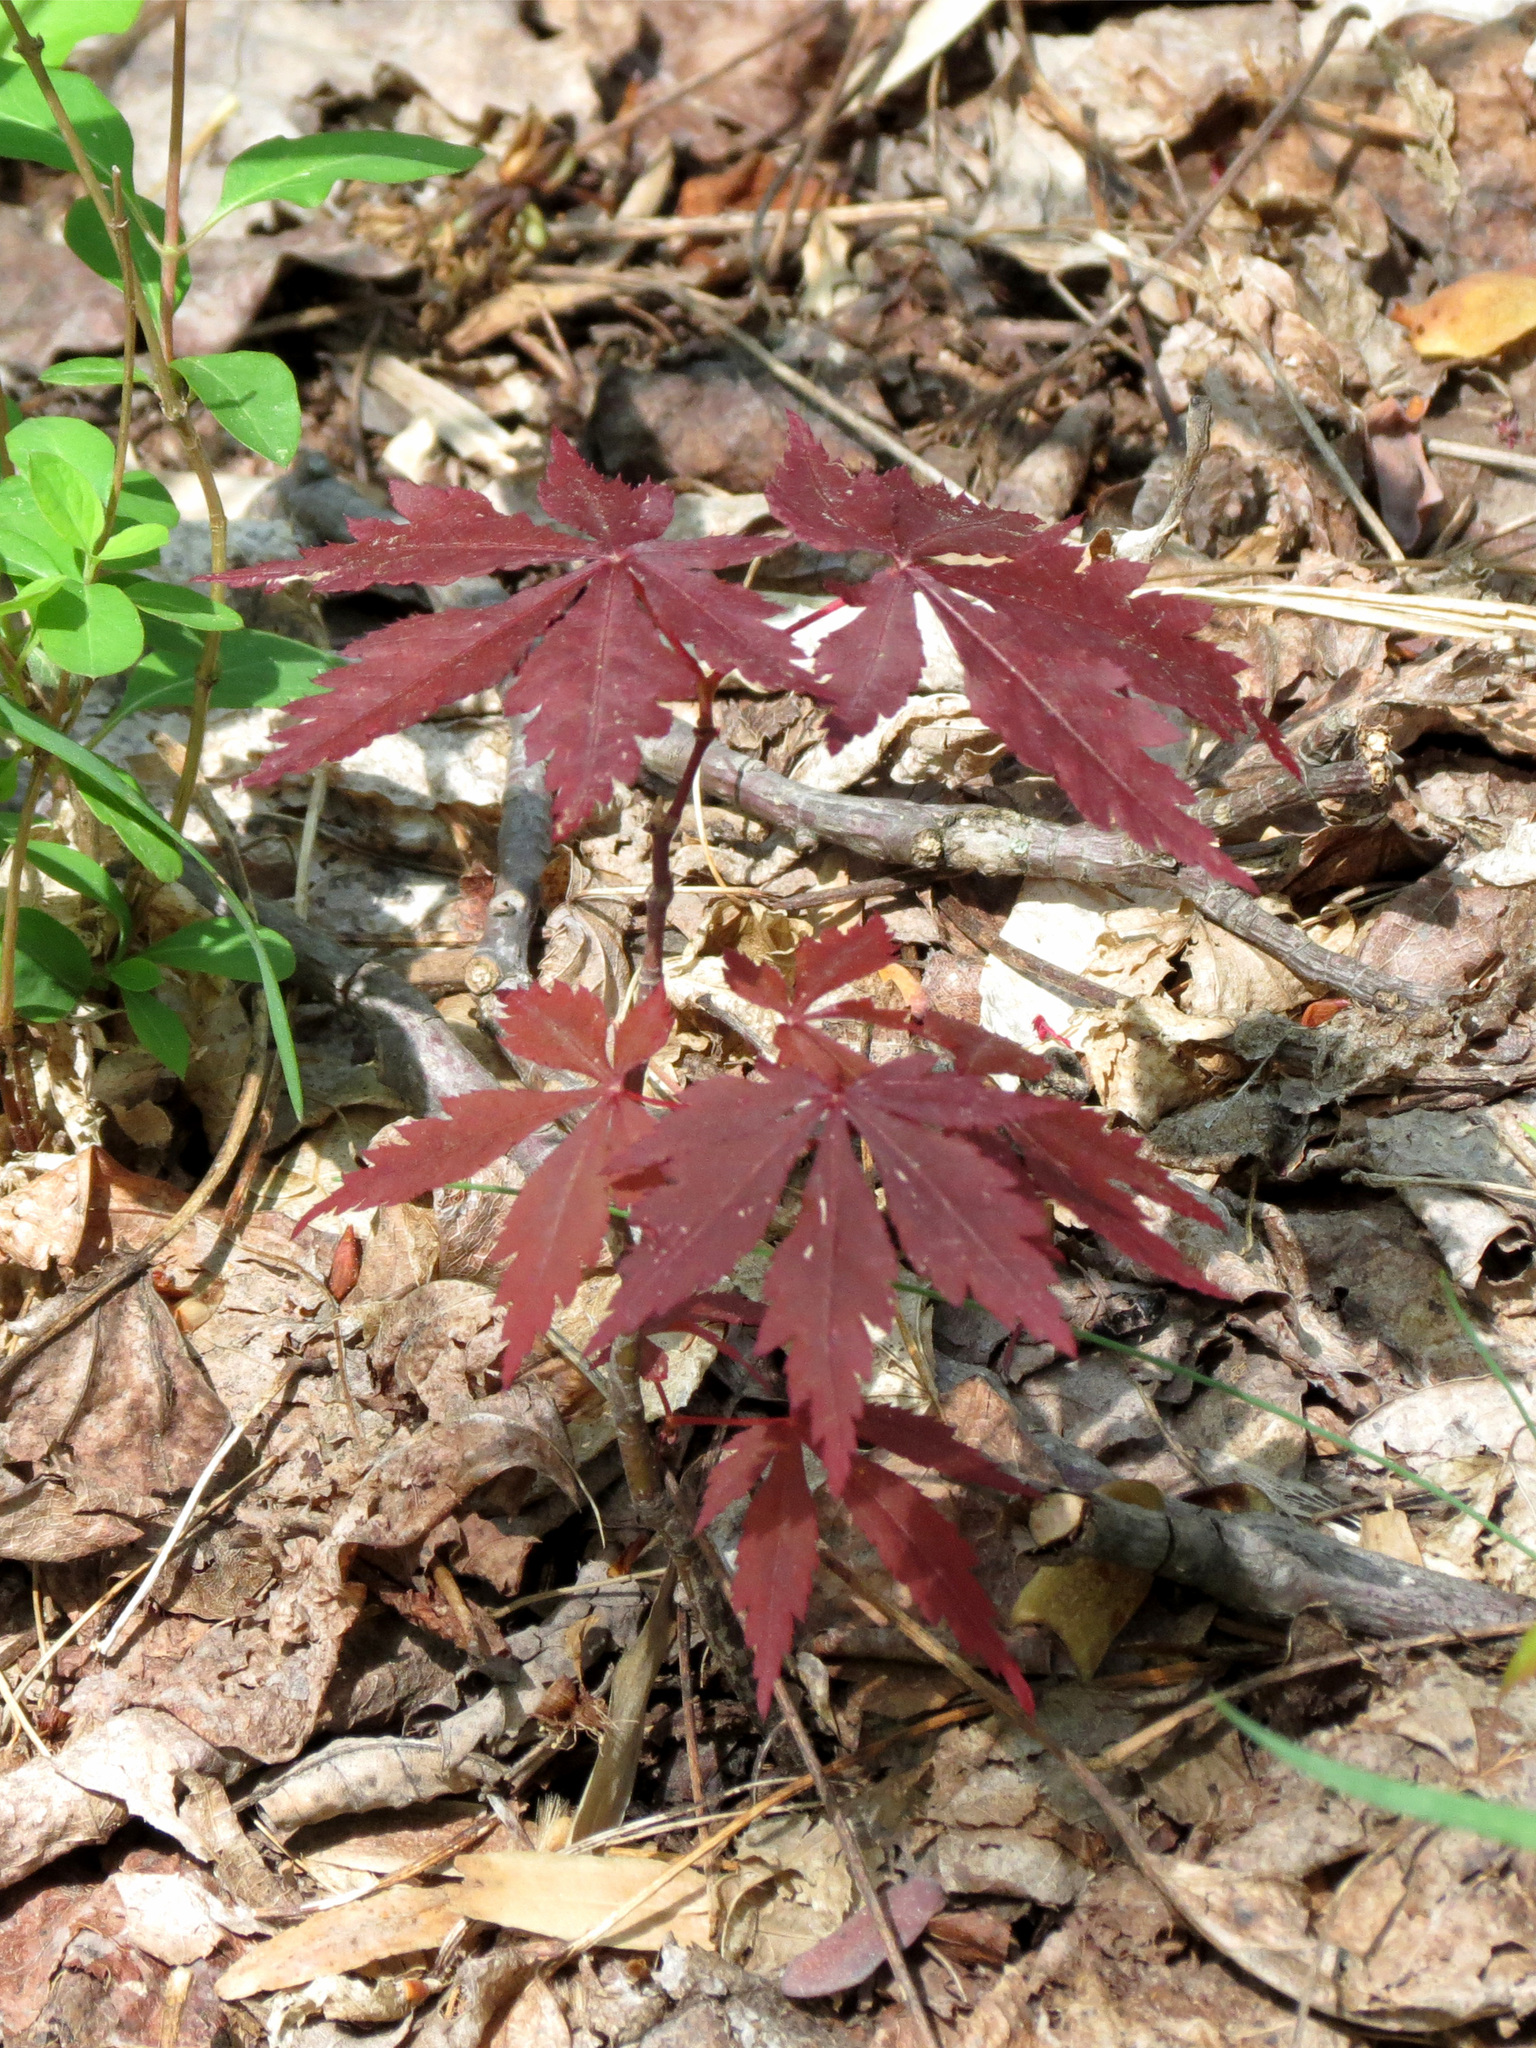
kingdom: Plantae
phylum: Tracheophyta
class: Magnoliopsida
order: Sapindales
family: Sapindaceae
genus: Acer
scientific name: Acer palmatum
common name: Japanese maple
